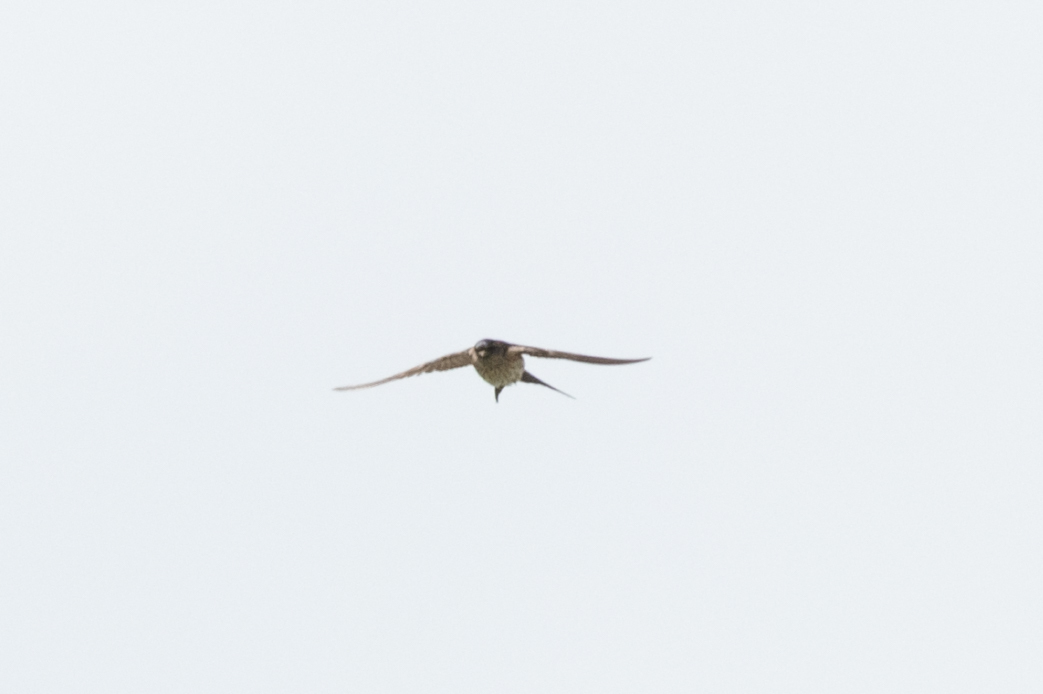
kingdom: Animalia
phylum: Chordata
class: Aves
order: Passeriformes
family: Hirundinidae
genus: Cecropis
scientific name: Cecropis daurica
